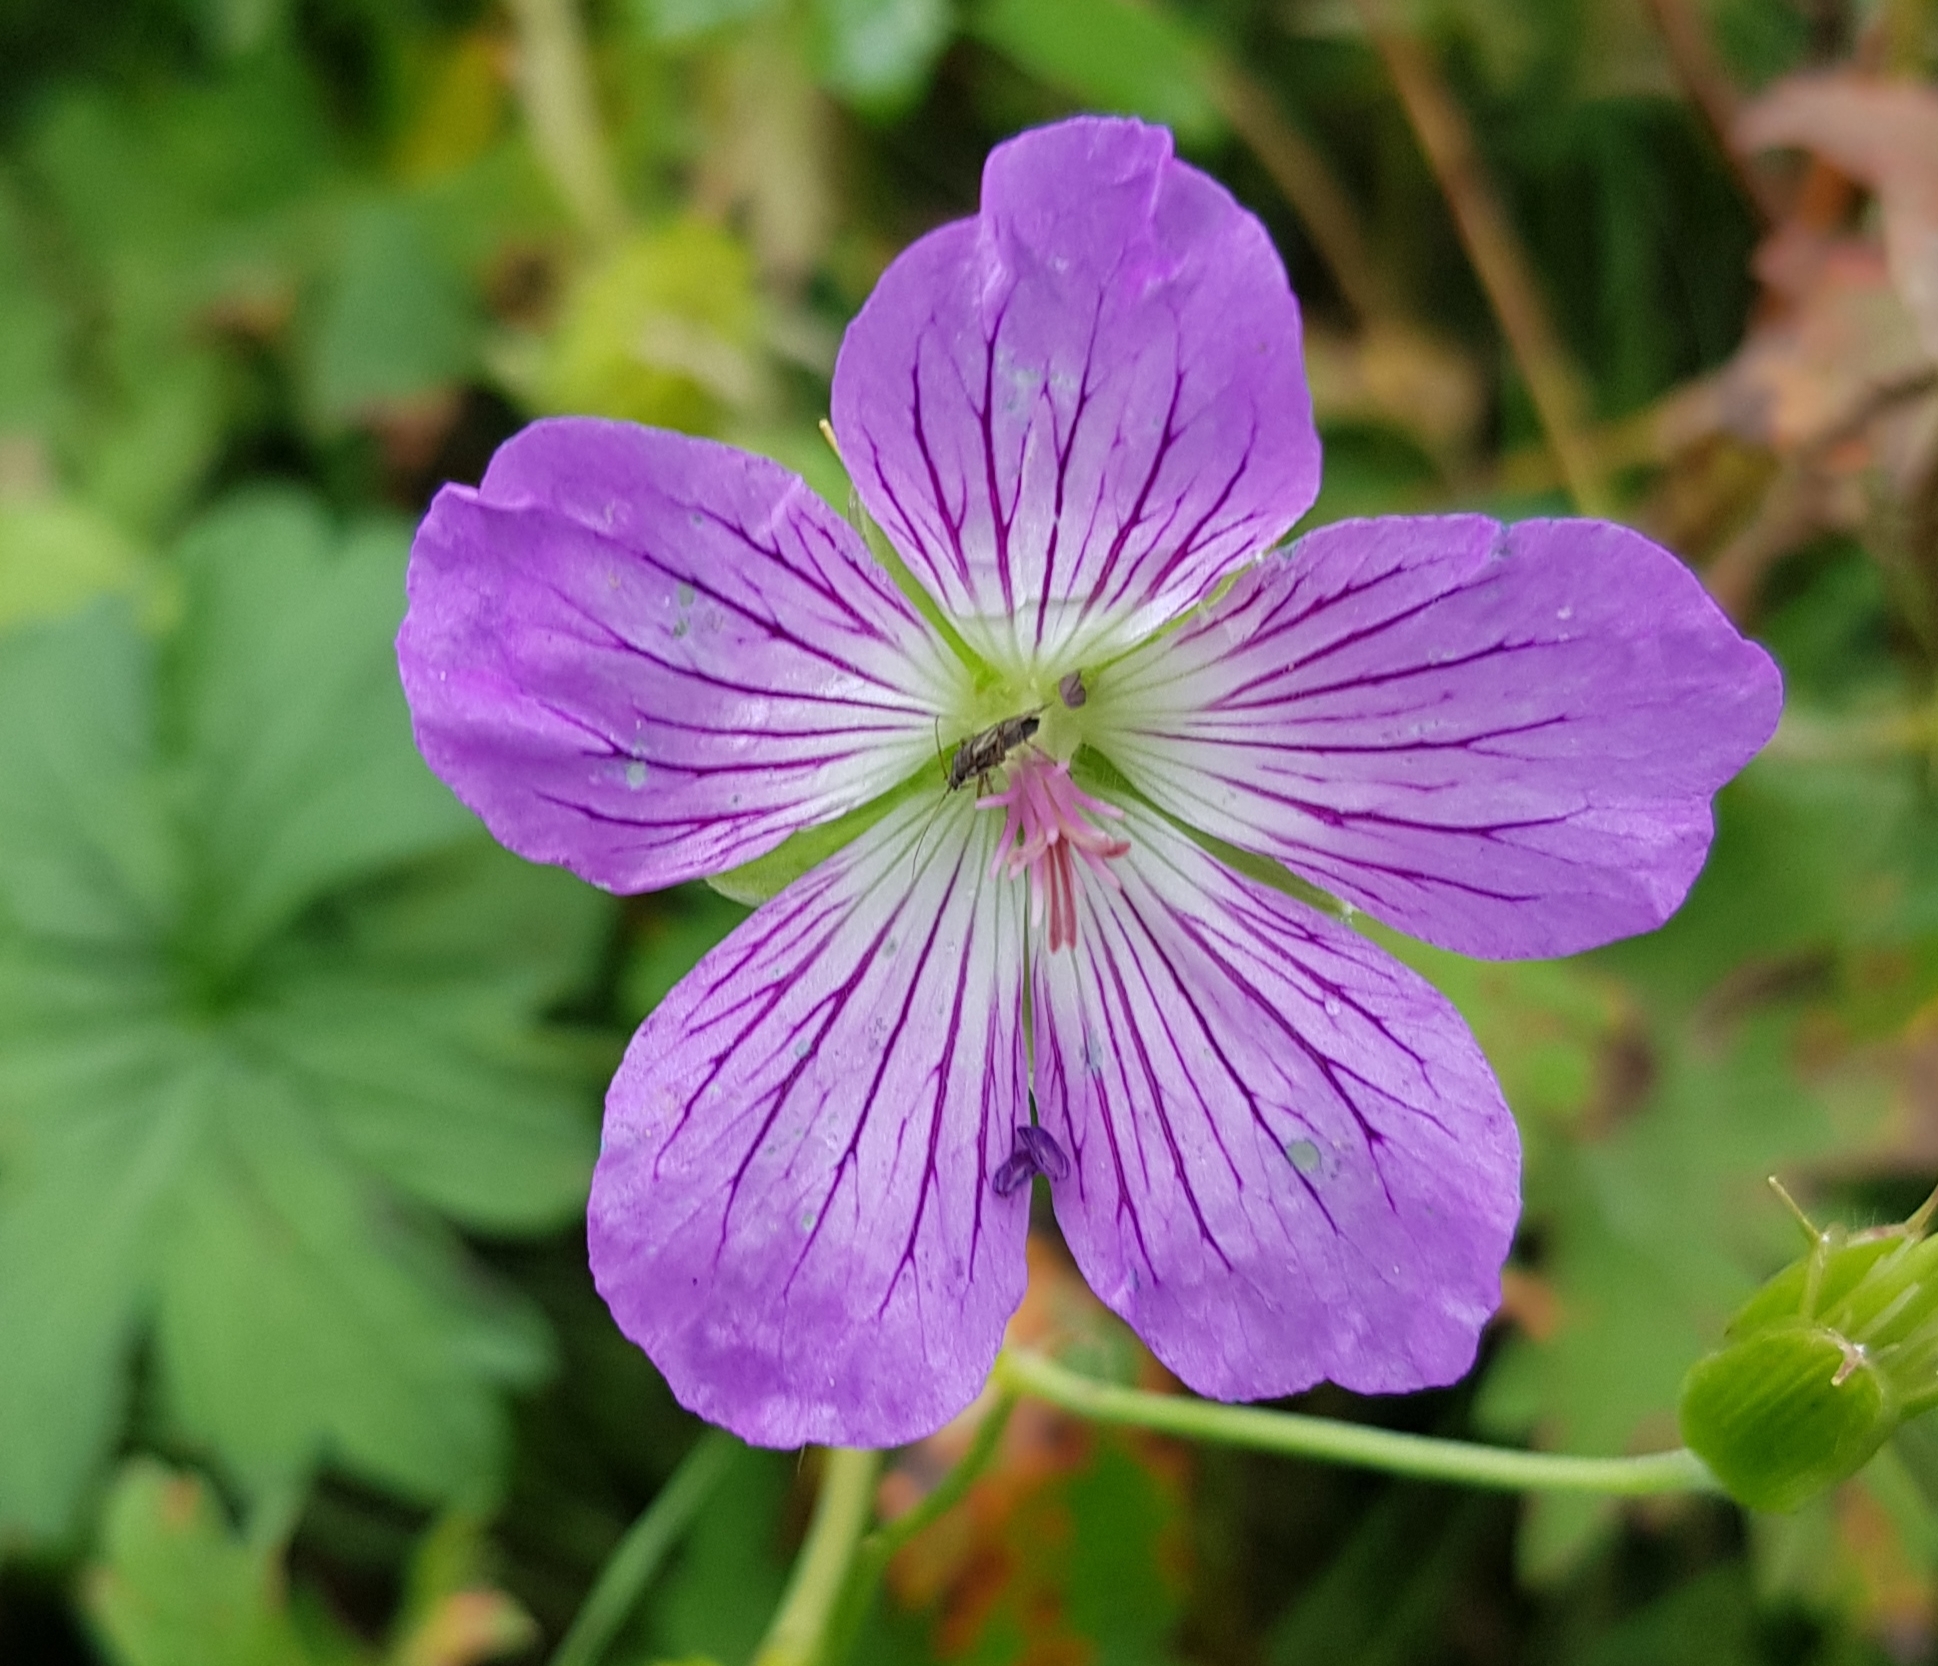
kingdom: Plantae
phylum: Tracheophyta
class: Magnoliopsida
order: Geraniales
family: Geraniaceae
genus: Geranium
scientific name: Geranium collinum
